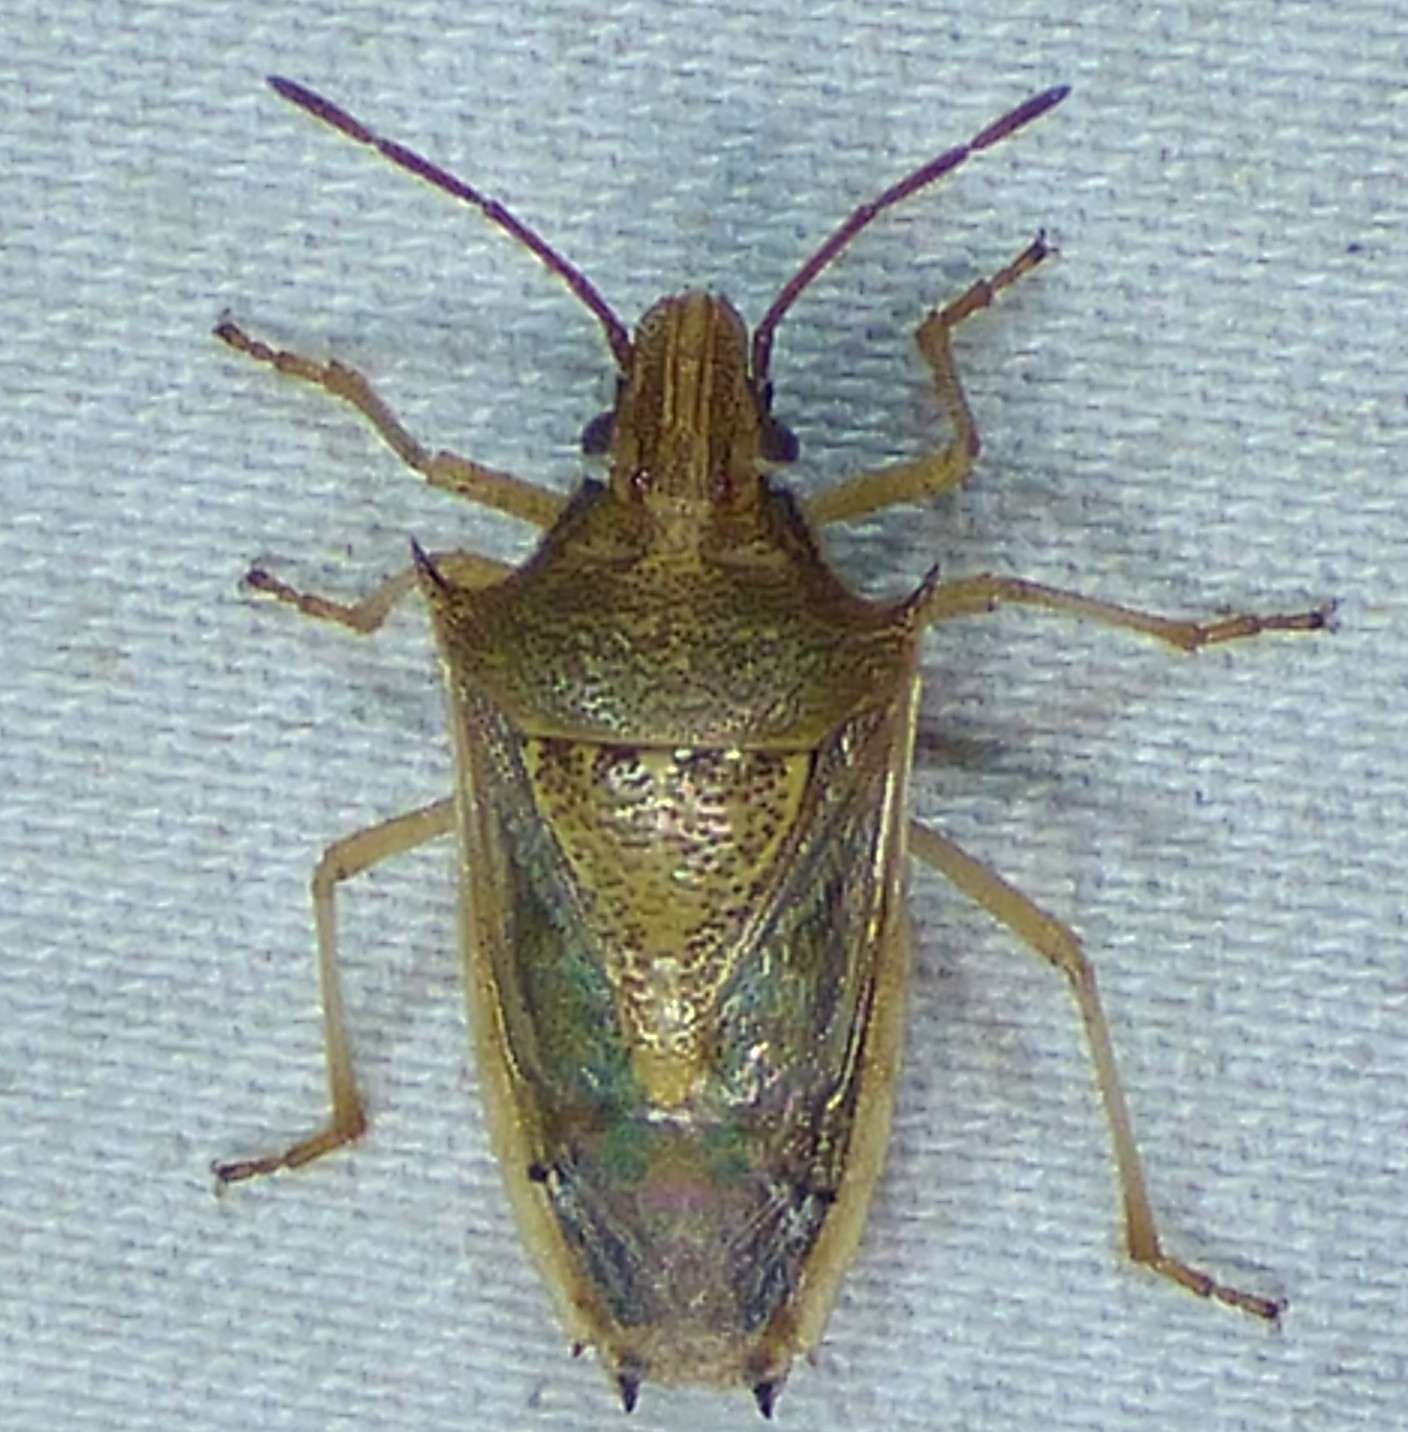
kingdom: Animalia
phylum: Arthropoda
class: Insecta
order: Hemiptera
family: Pentatomidae
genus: Oebalus
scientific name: Oebalus pugnax
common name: Rice stink bug
